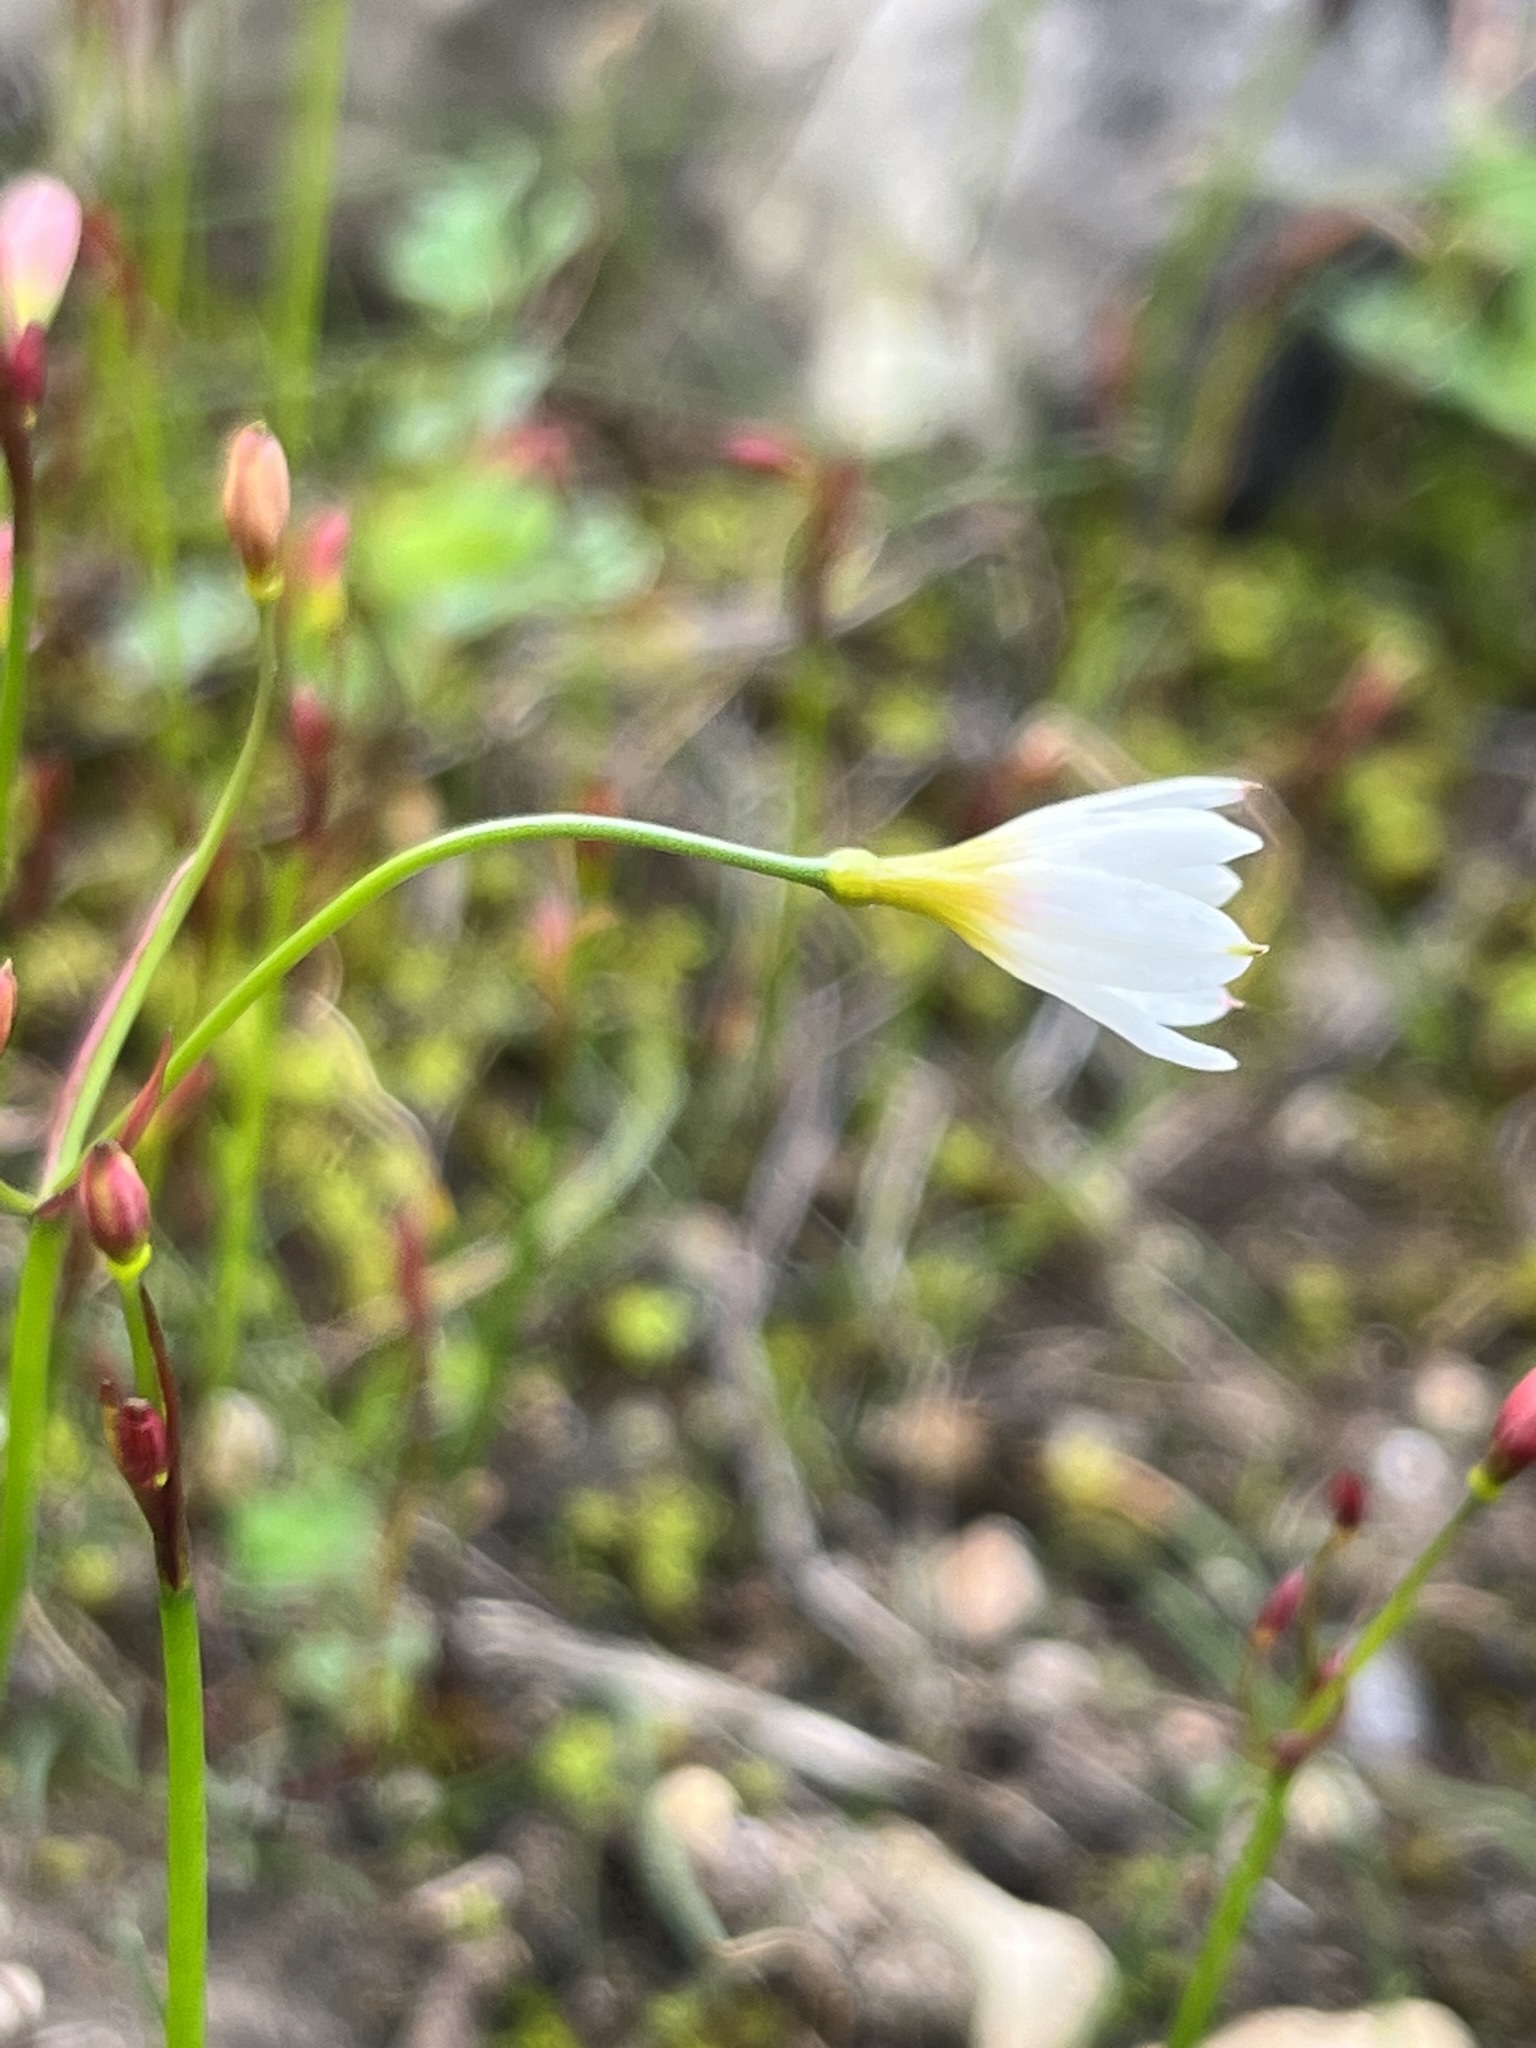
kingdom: Plantae
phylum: Tracheophyta
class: Liliopsida
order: Asparagales
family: Amaryllidaceae
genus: Strumaria
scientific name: Strumaria spiralis
